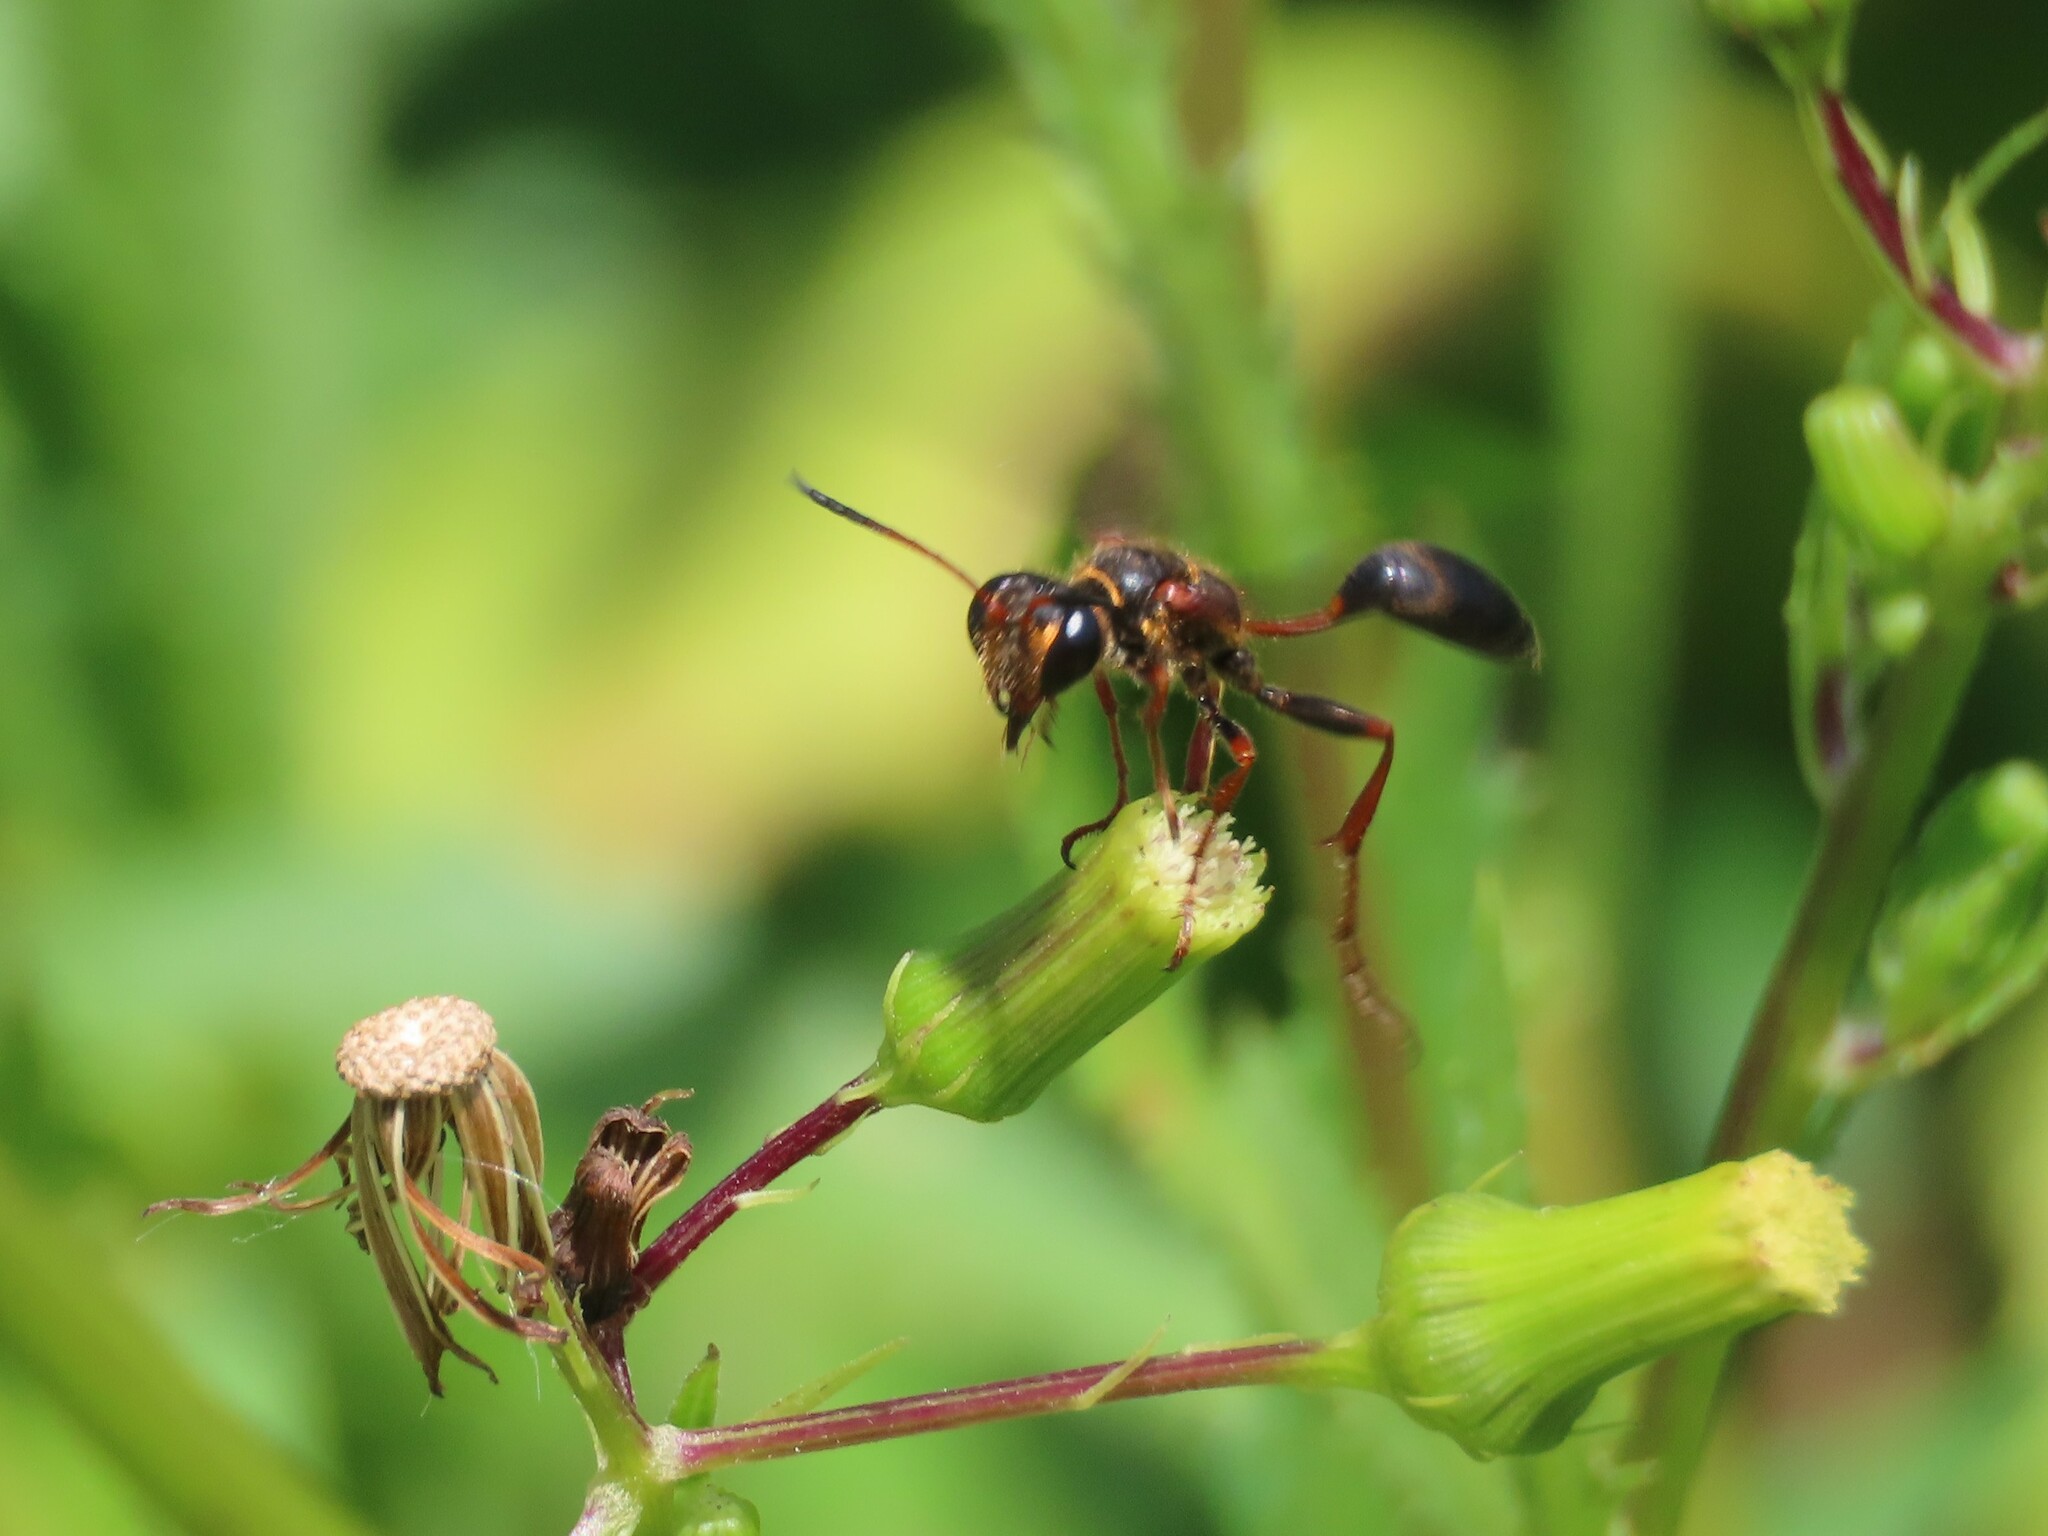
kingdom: Animalia
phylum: Arthropoda
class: Insecta
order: Hymenoptera
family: Sphecidae
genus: Isodontia
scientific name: Isodontia exornata
